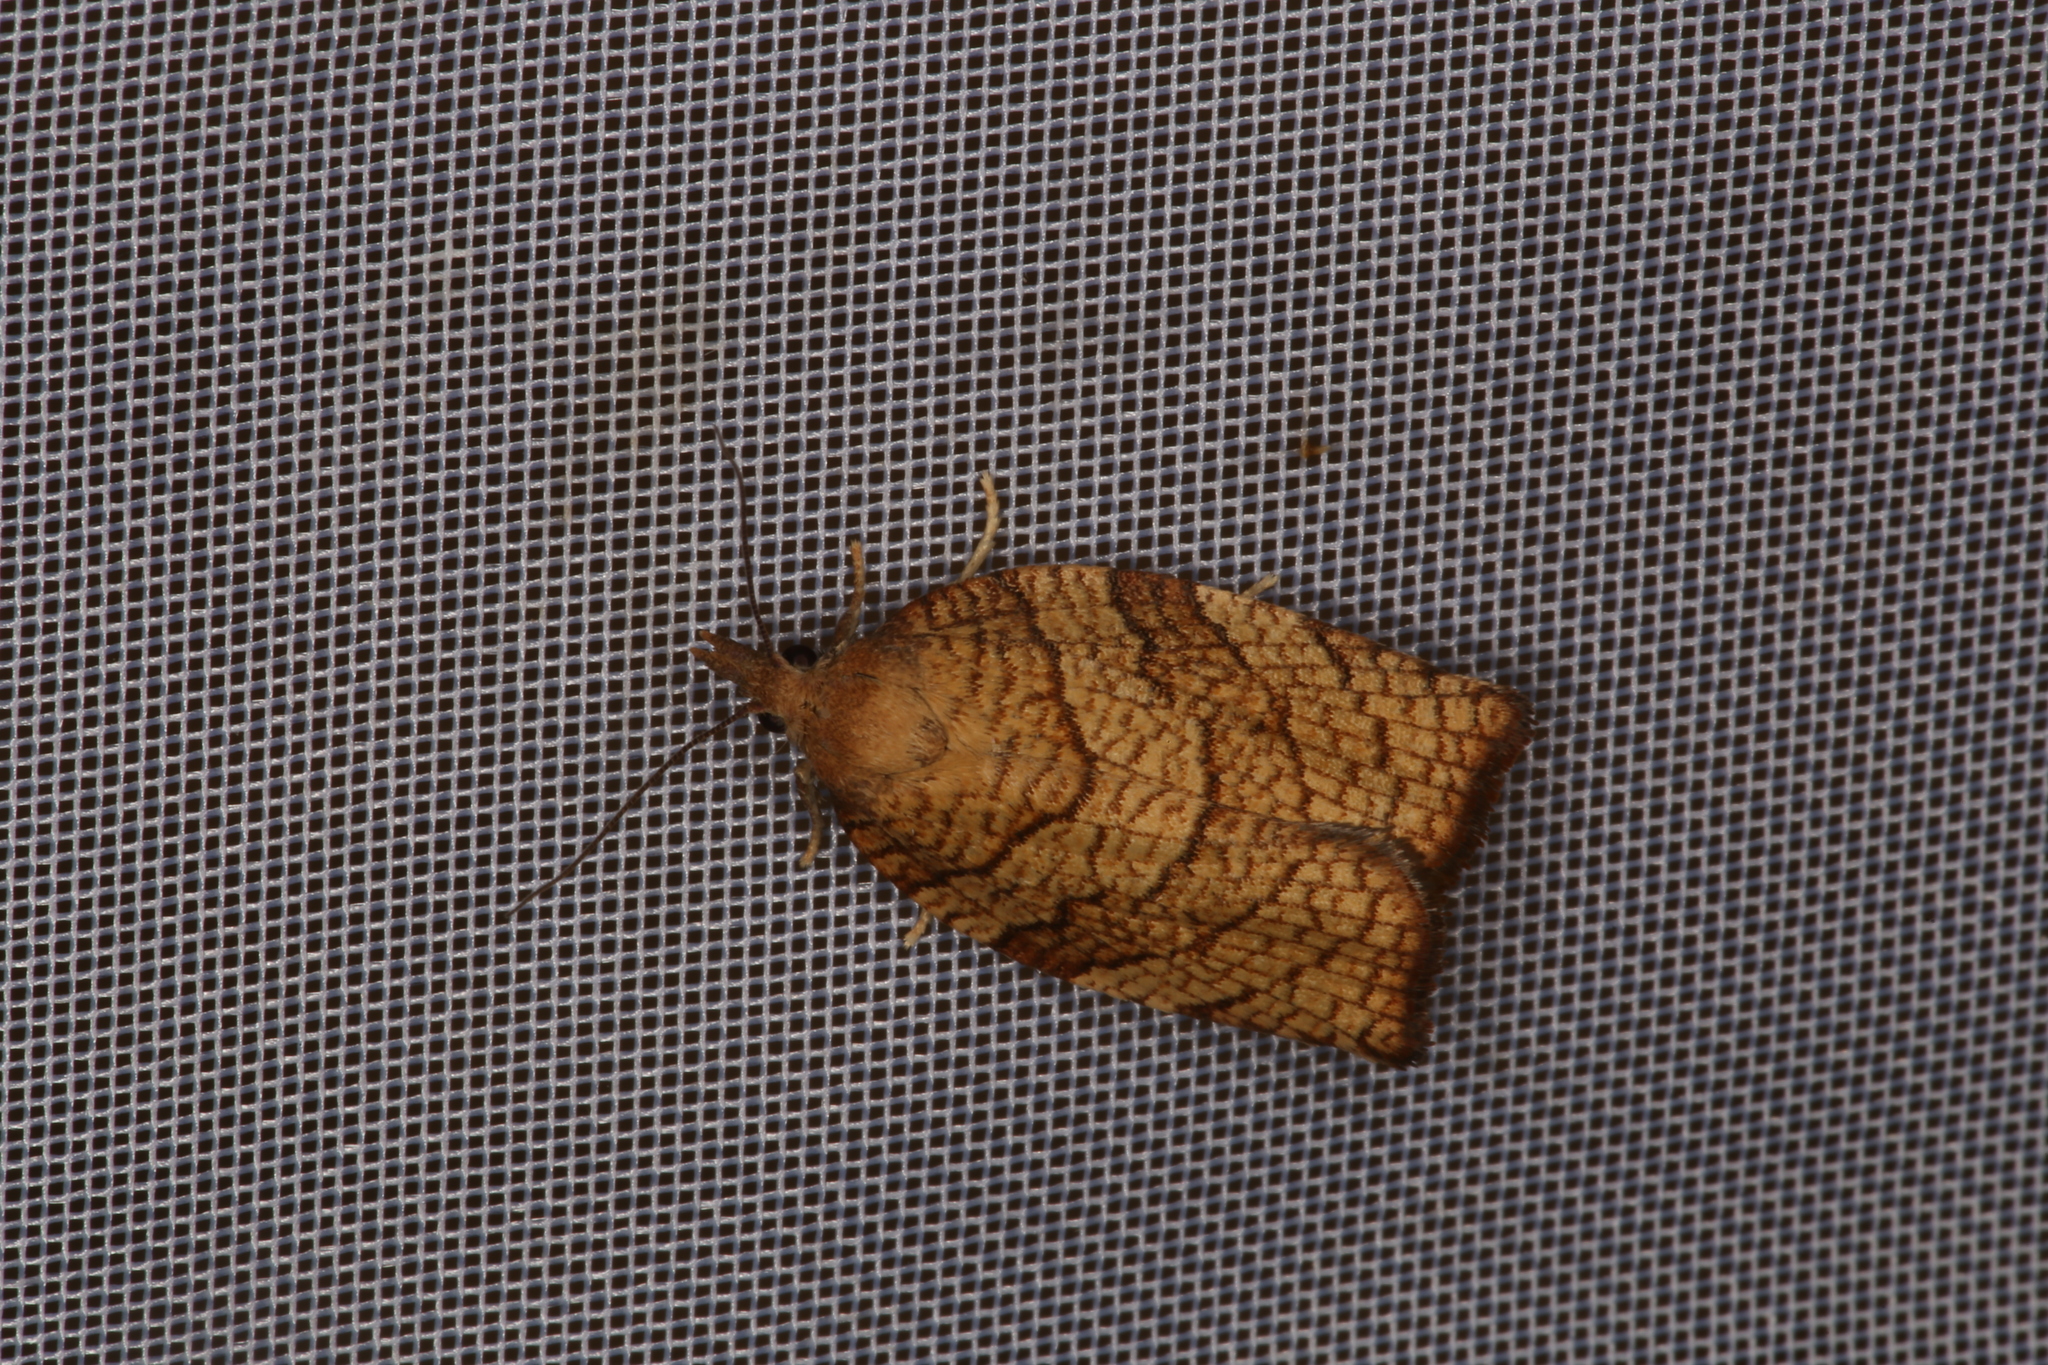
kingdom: Animalia
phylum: Arthropoda
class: Insecta
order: Lepidoptera
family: Tortricidae
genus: Pandemis
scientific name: Pandemis corylana
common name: Chequered fruit-tree tortrix
